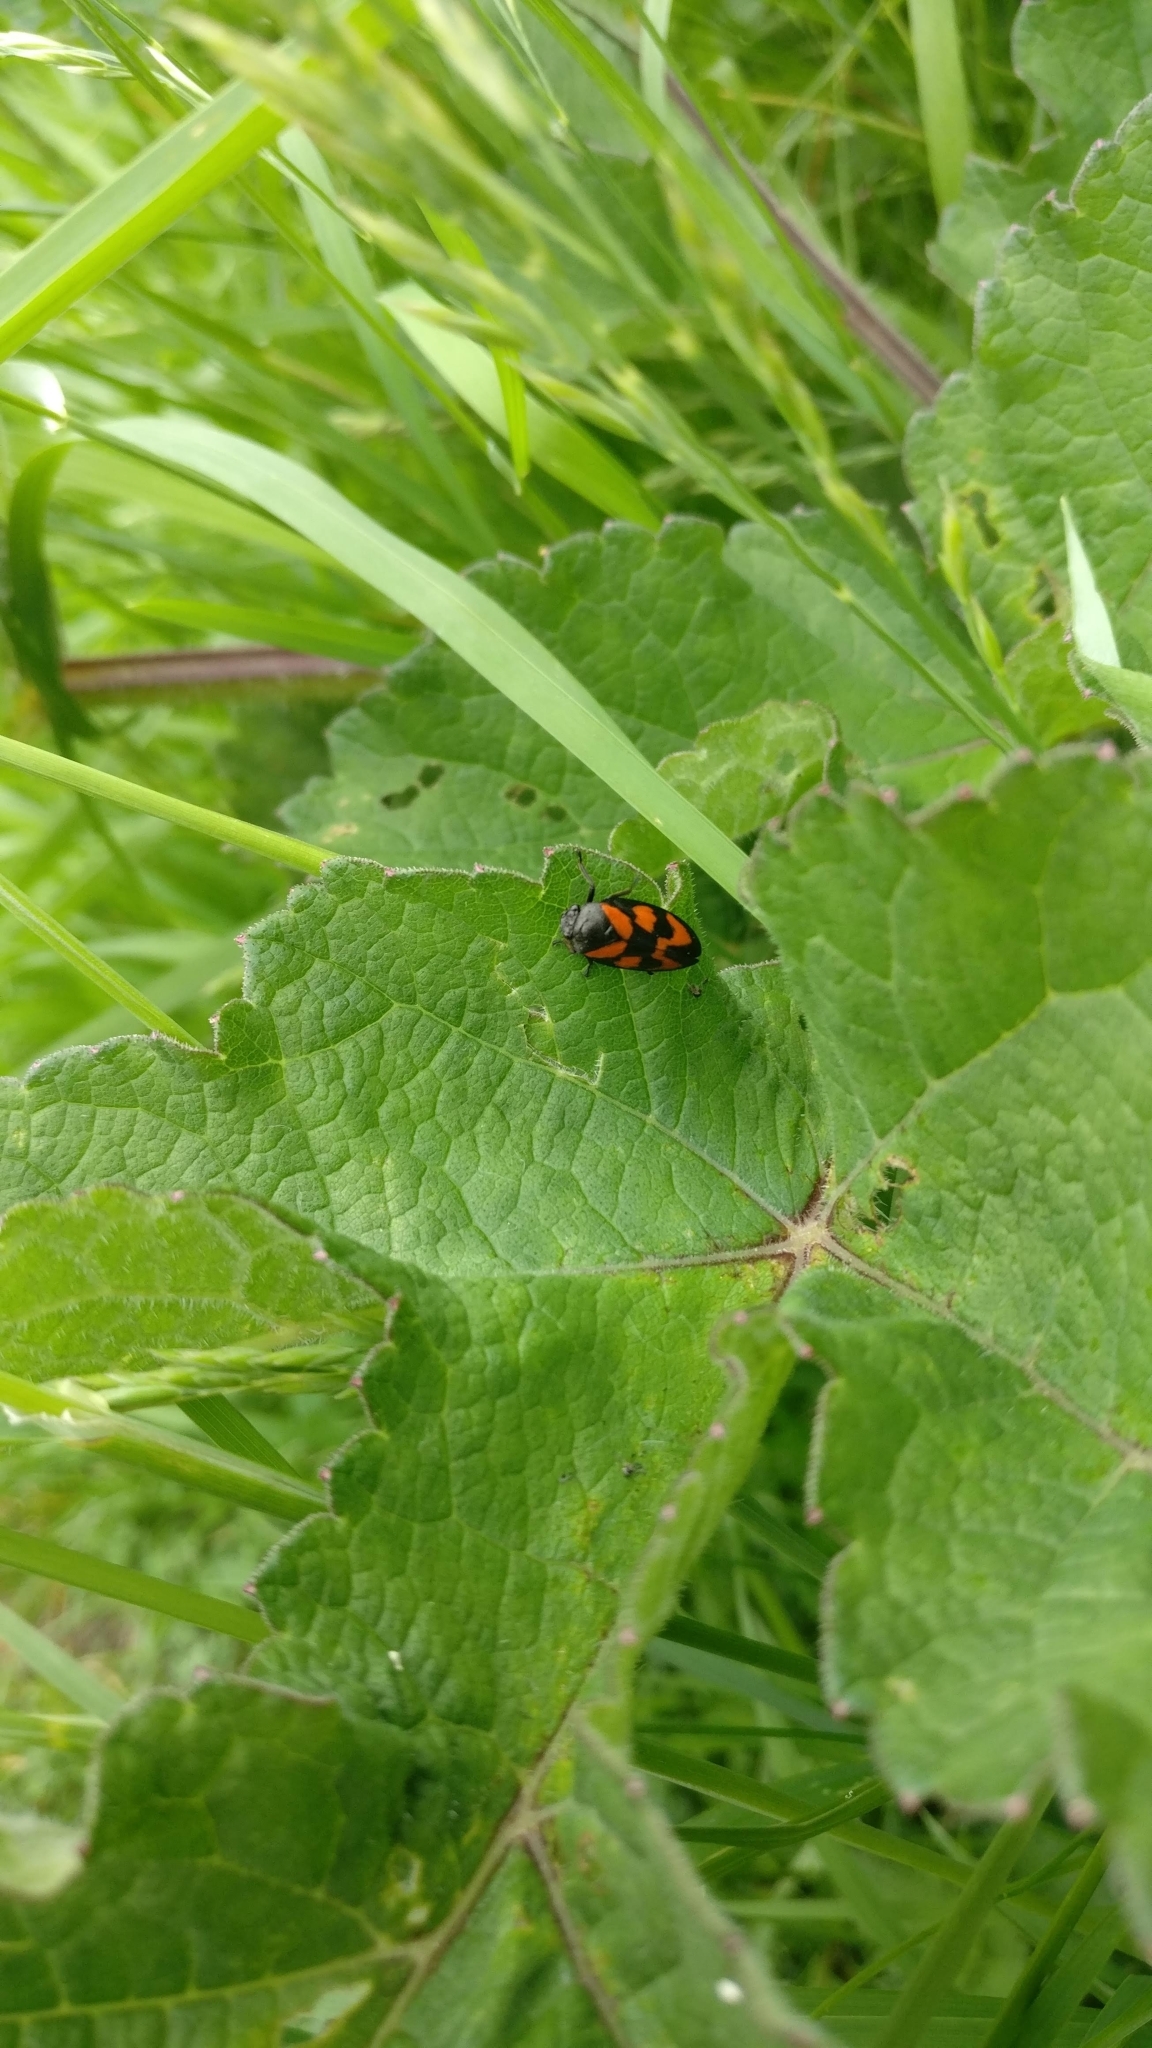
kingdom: Animalia
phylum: Arthropoda
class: Insecta
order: Hemiptera
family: Cercopidae
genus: Cercopis
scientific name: Cercopis vulnerata
